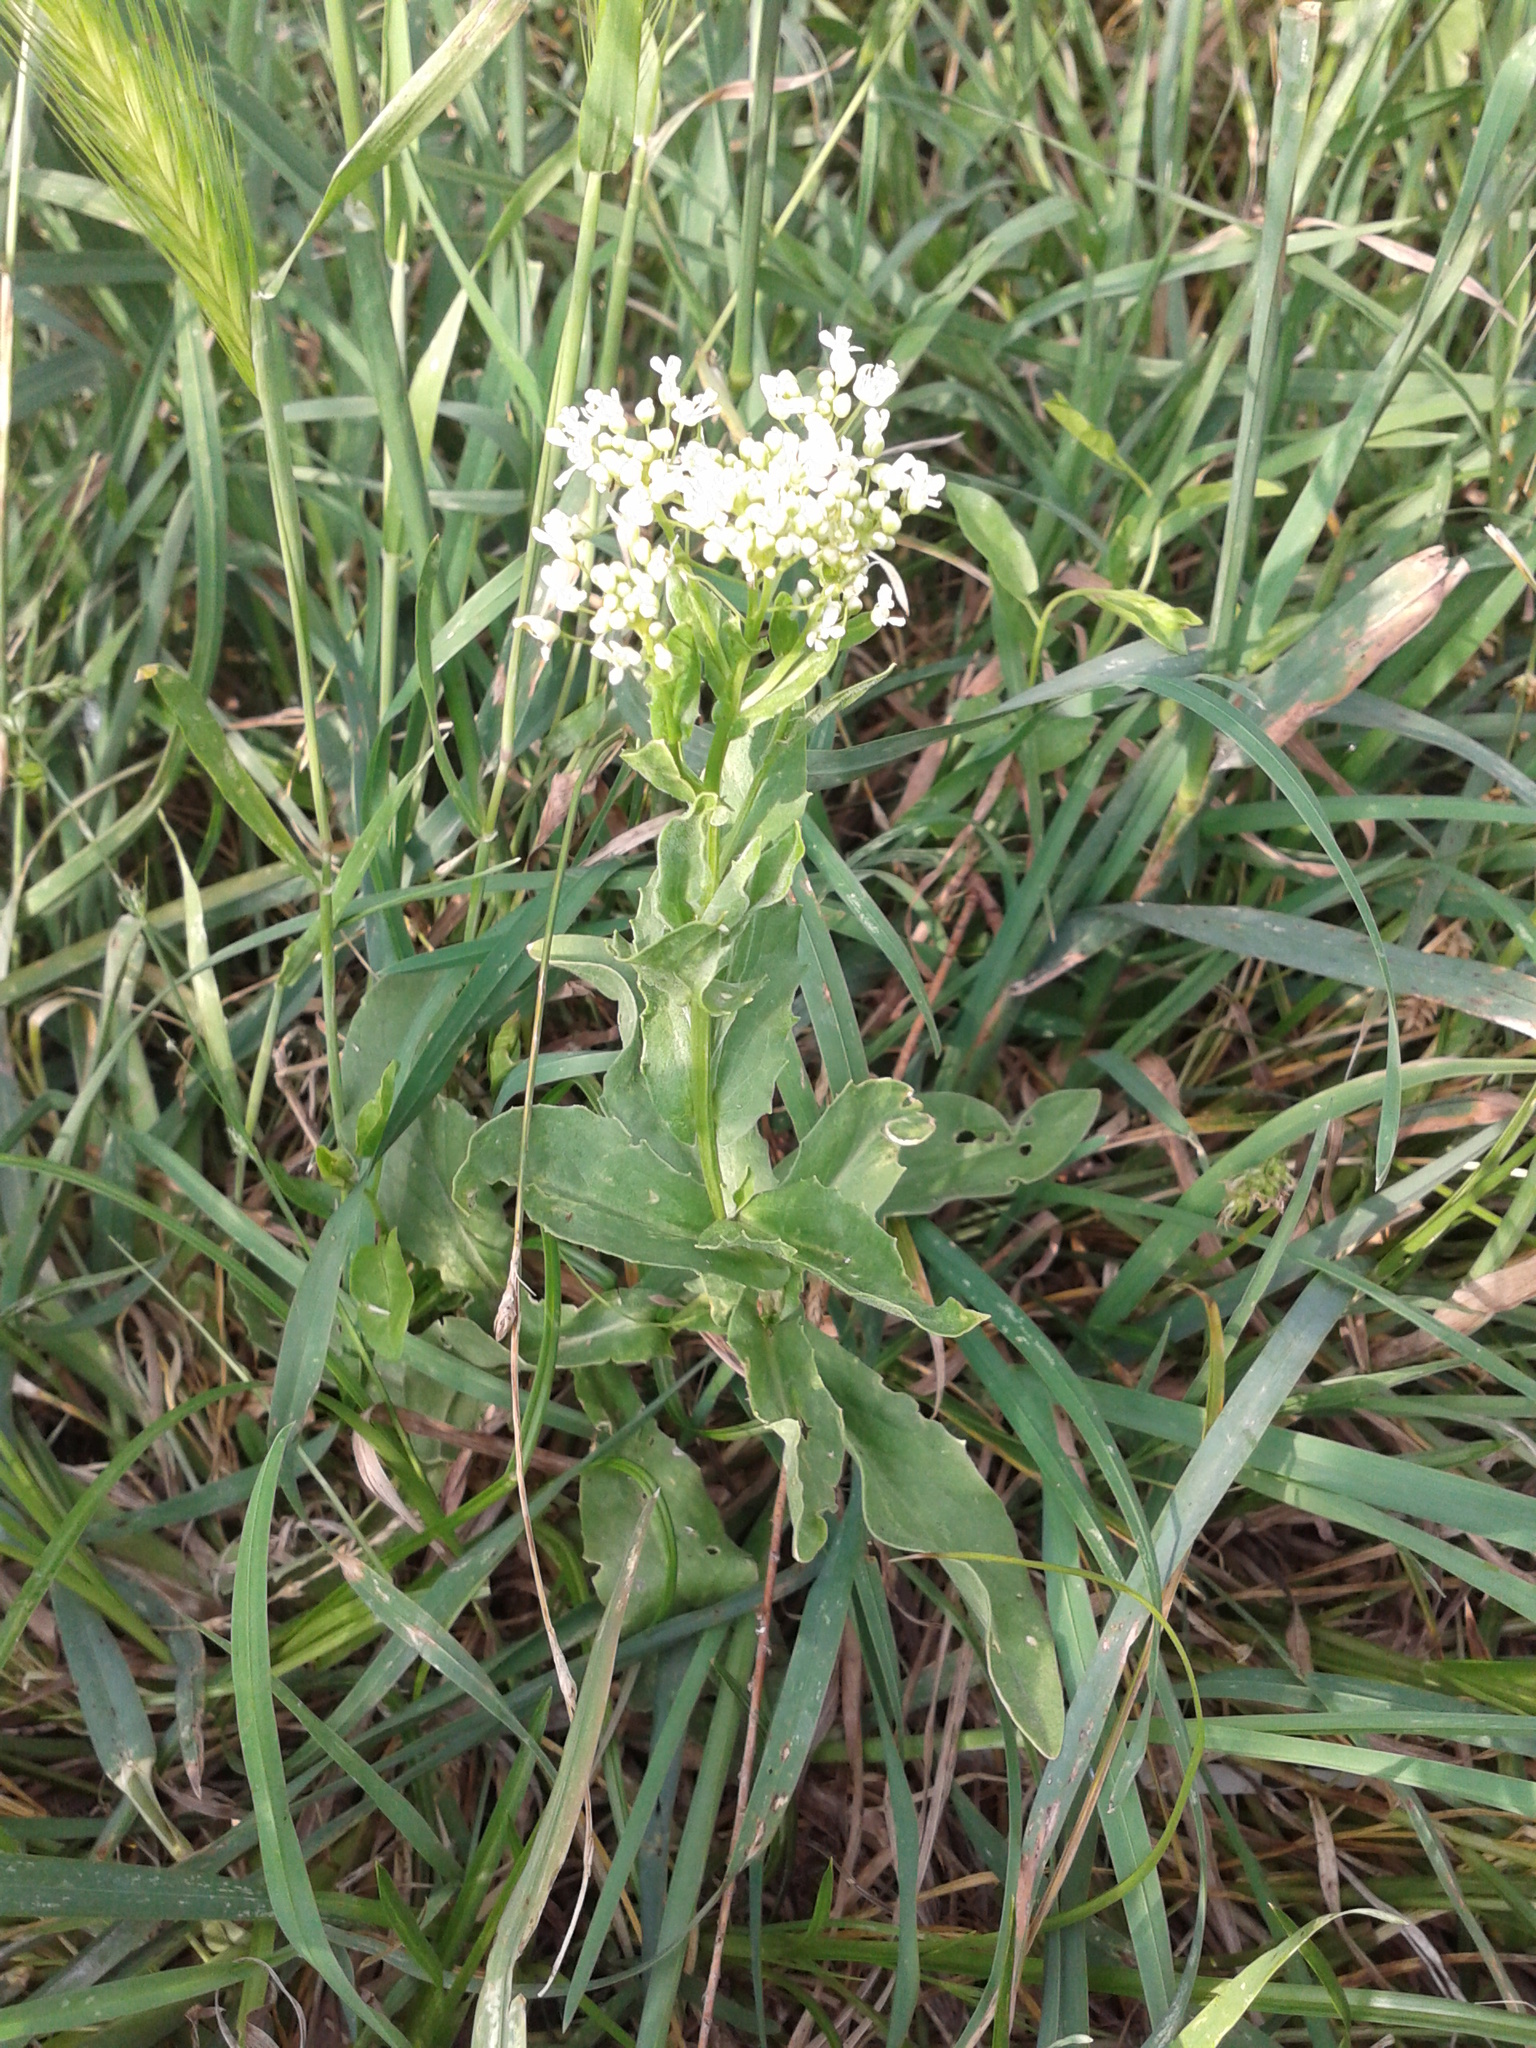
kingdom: Plantae
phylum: Tracheophyta
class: Magnoliopsida
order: Brassicales
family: Brassicaceae
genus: Lepidium
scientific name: Lepidium draba
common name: Hoary cress
